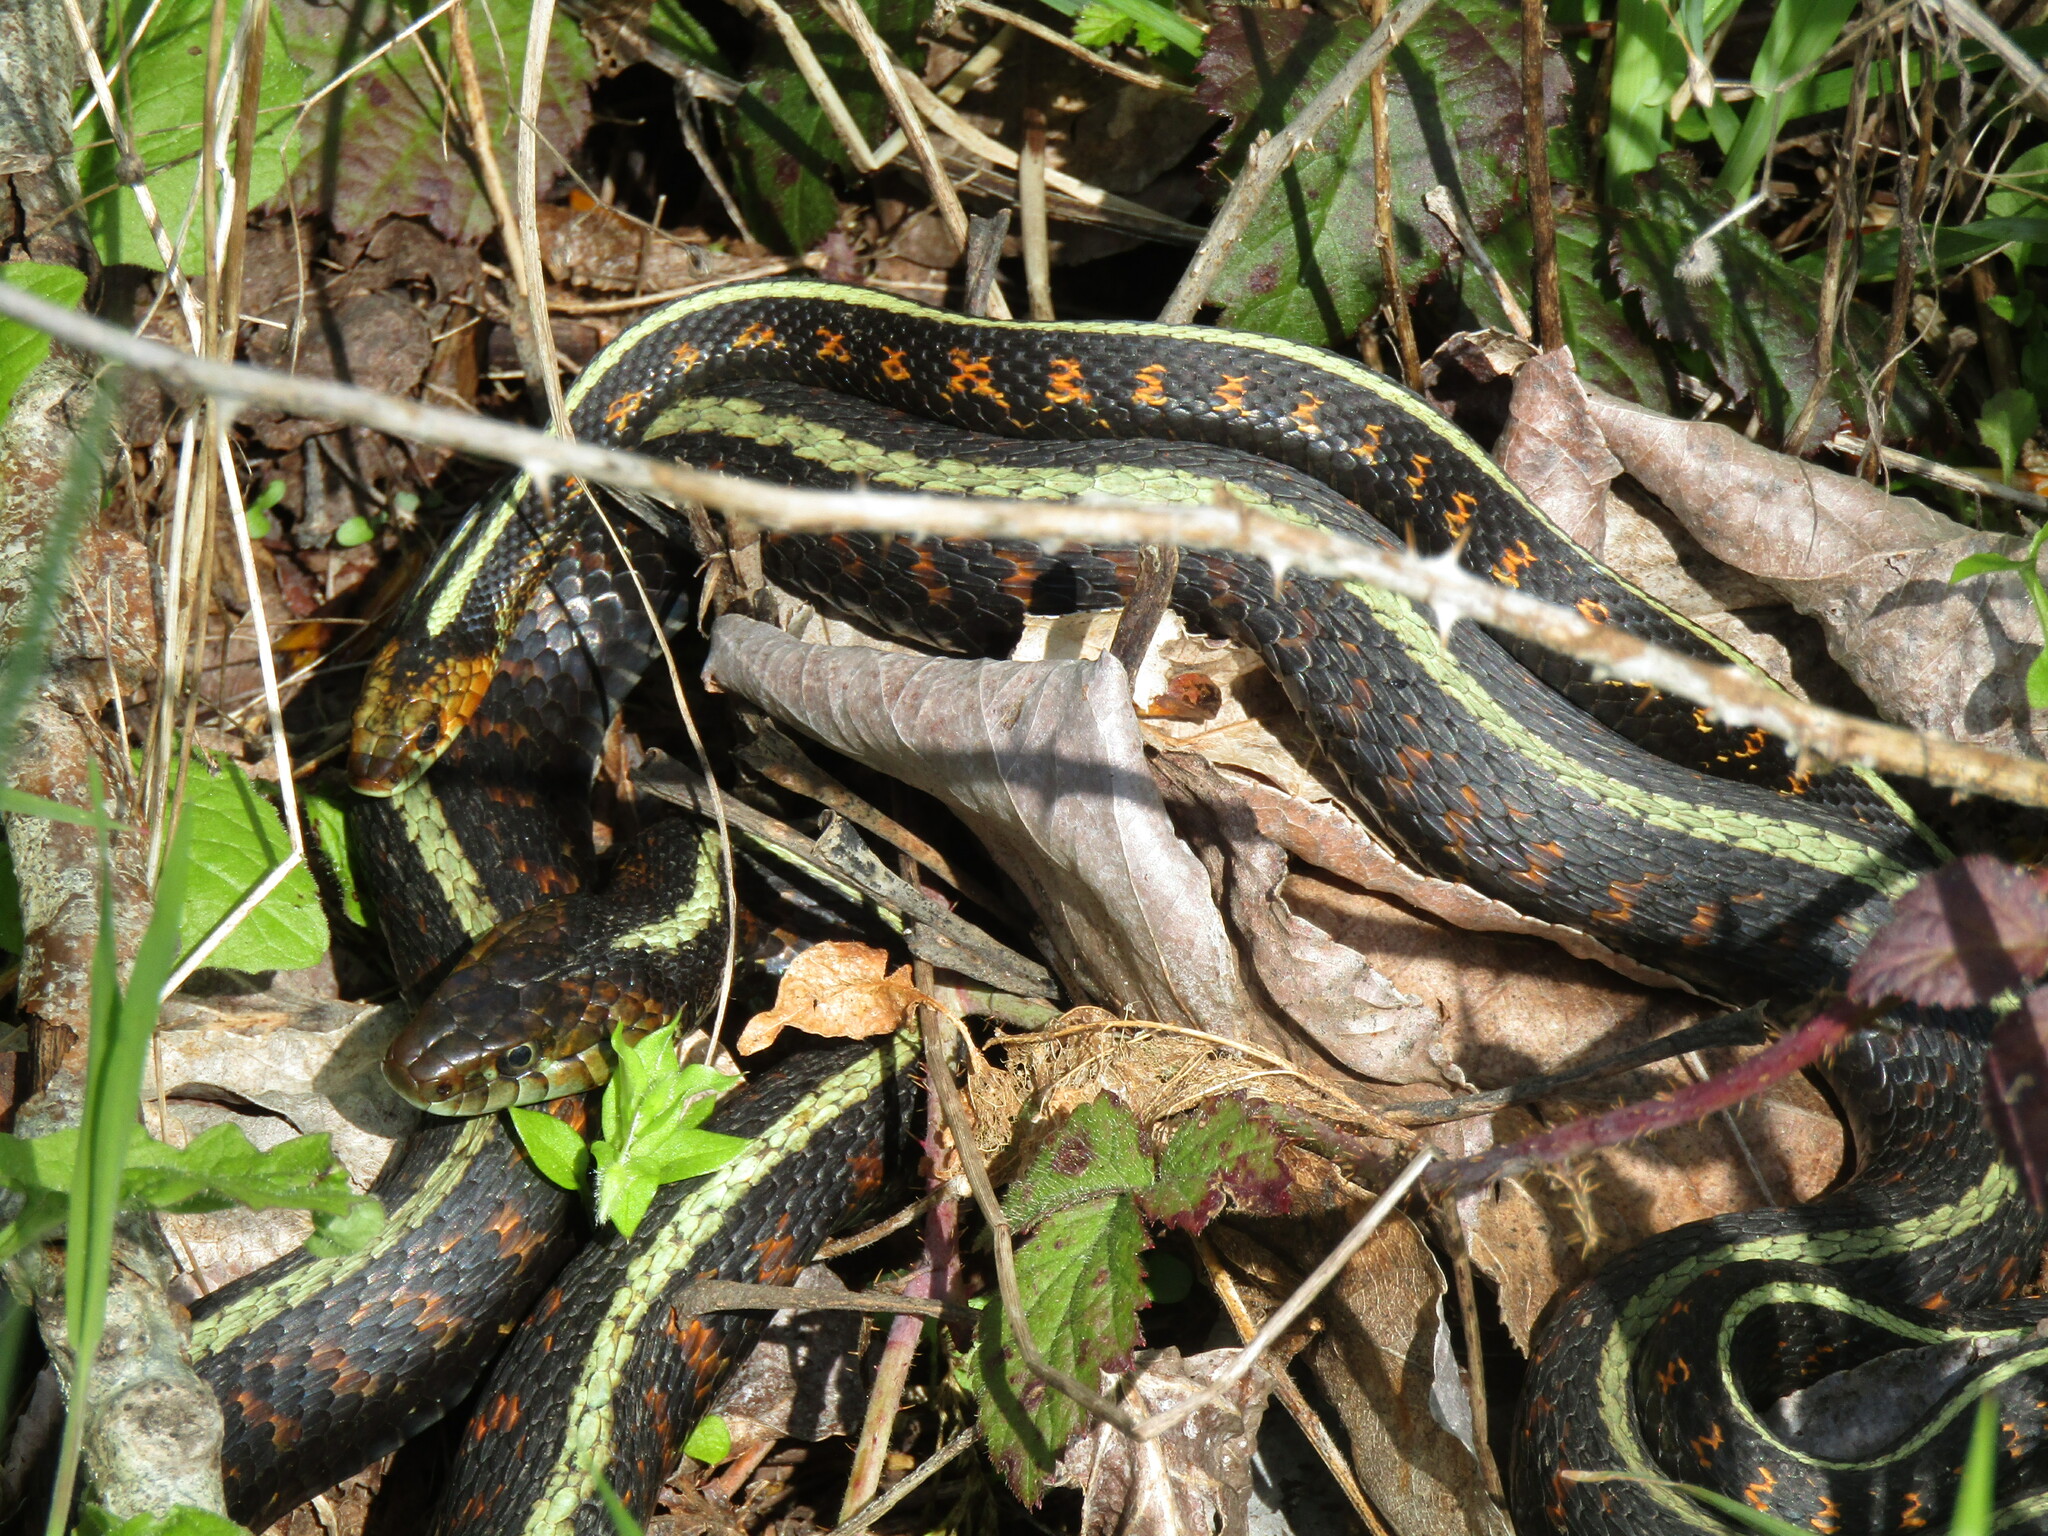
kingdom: Animalia
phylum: Chordata
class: Squamata
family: Colubridae
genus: Thamnophis
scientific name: Thamnophis sirtalis
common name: Common garter snake
